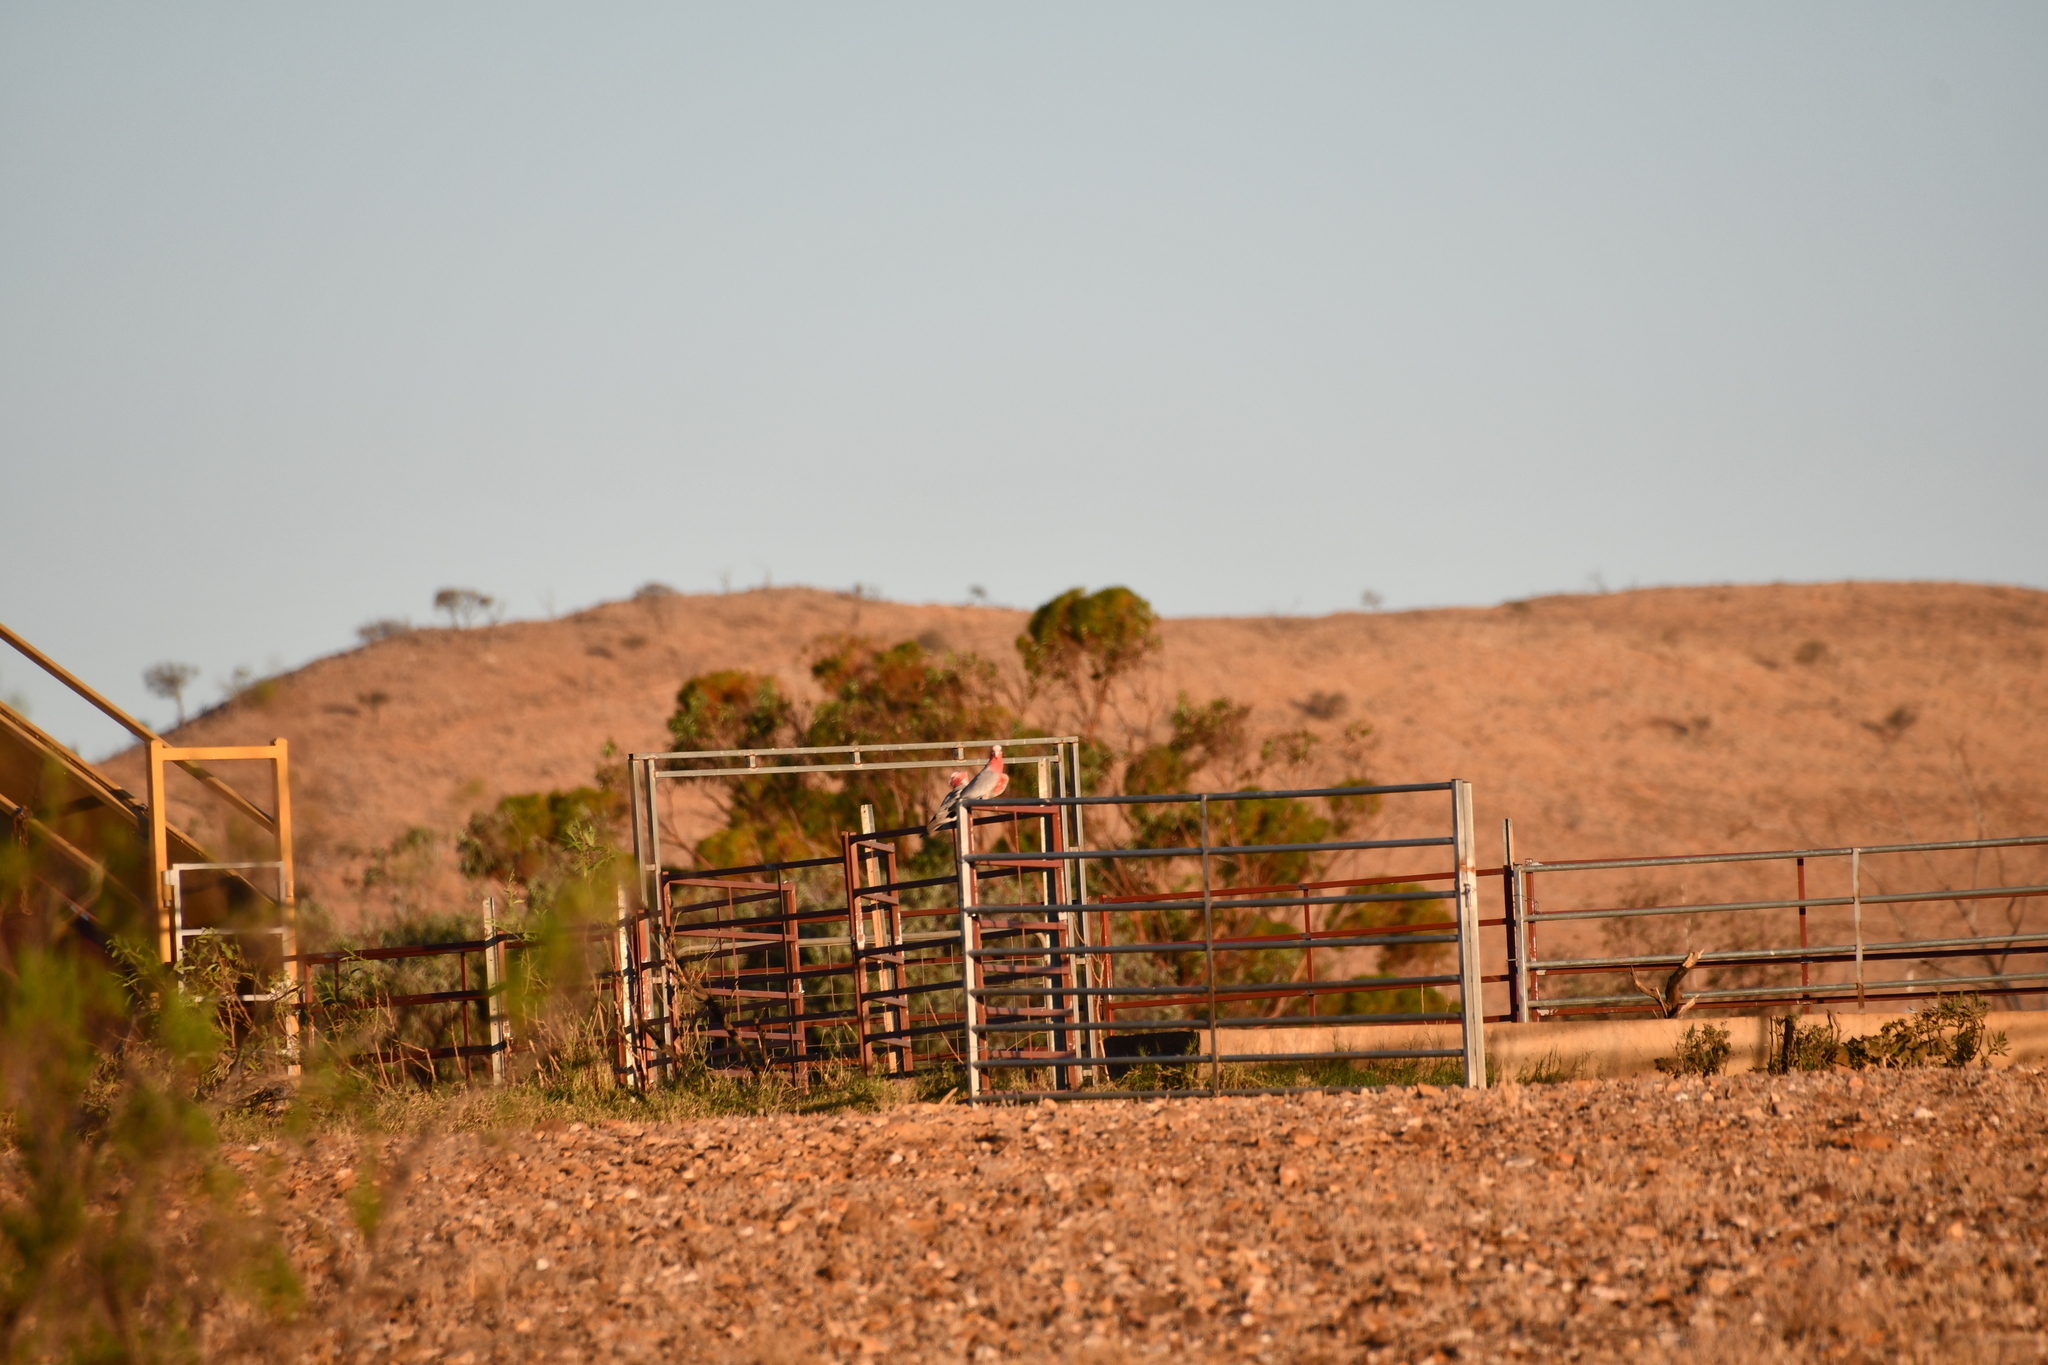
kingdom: Animalia
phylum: Chordata
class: Aves
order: Psittaciformes
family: Psittacidae
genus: Eolophus
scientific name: Eolophus roseicapilla
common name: Galah
